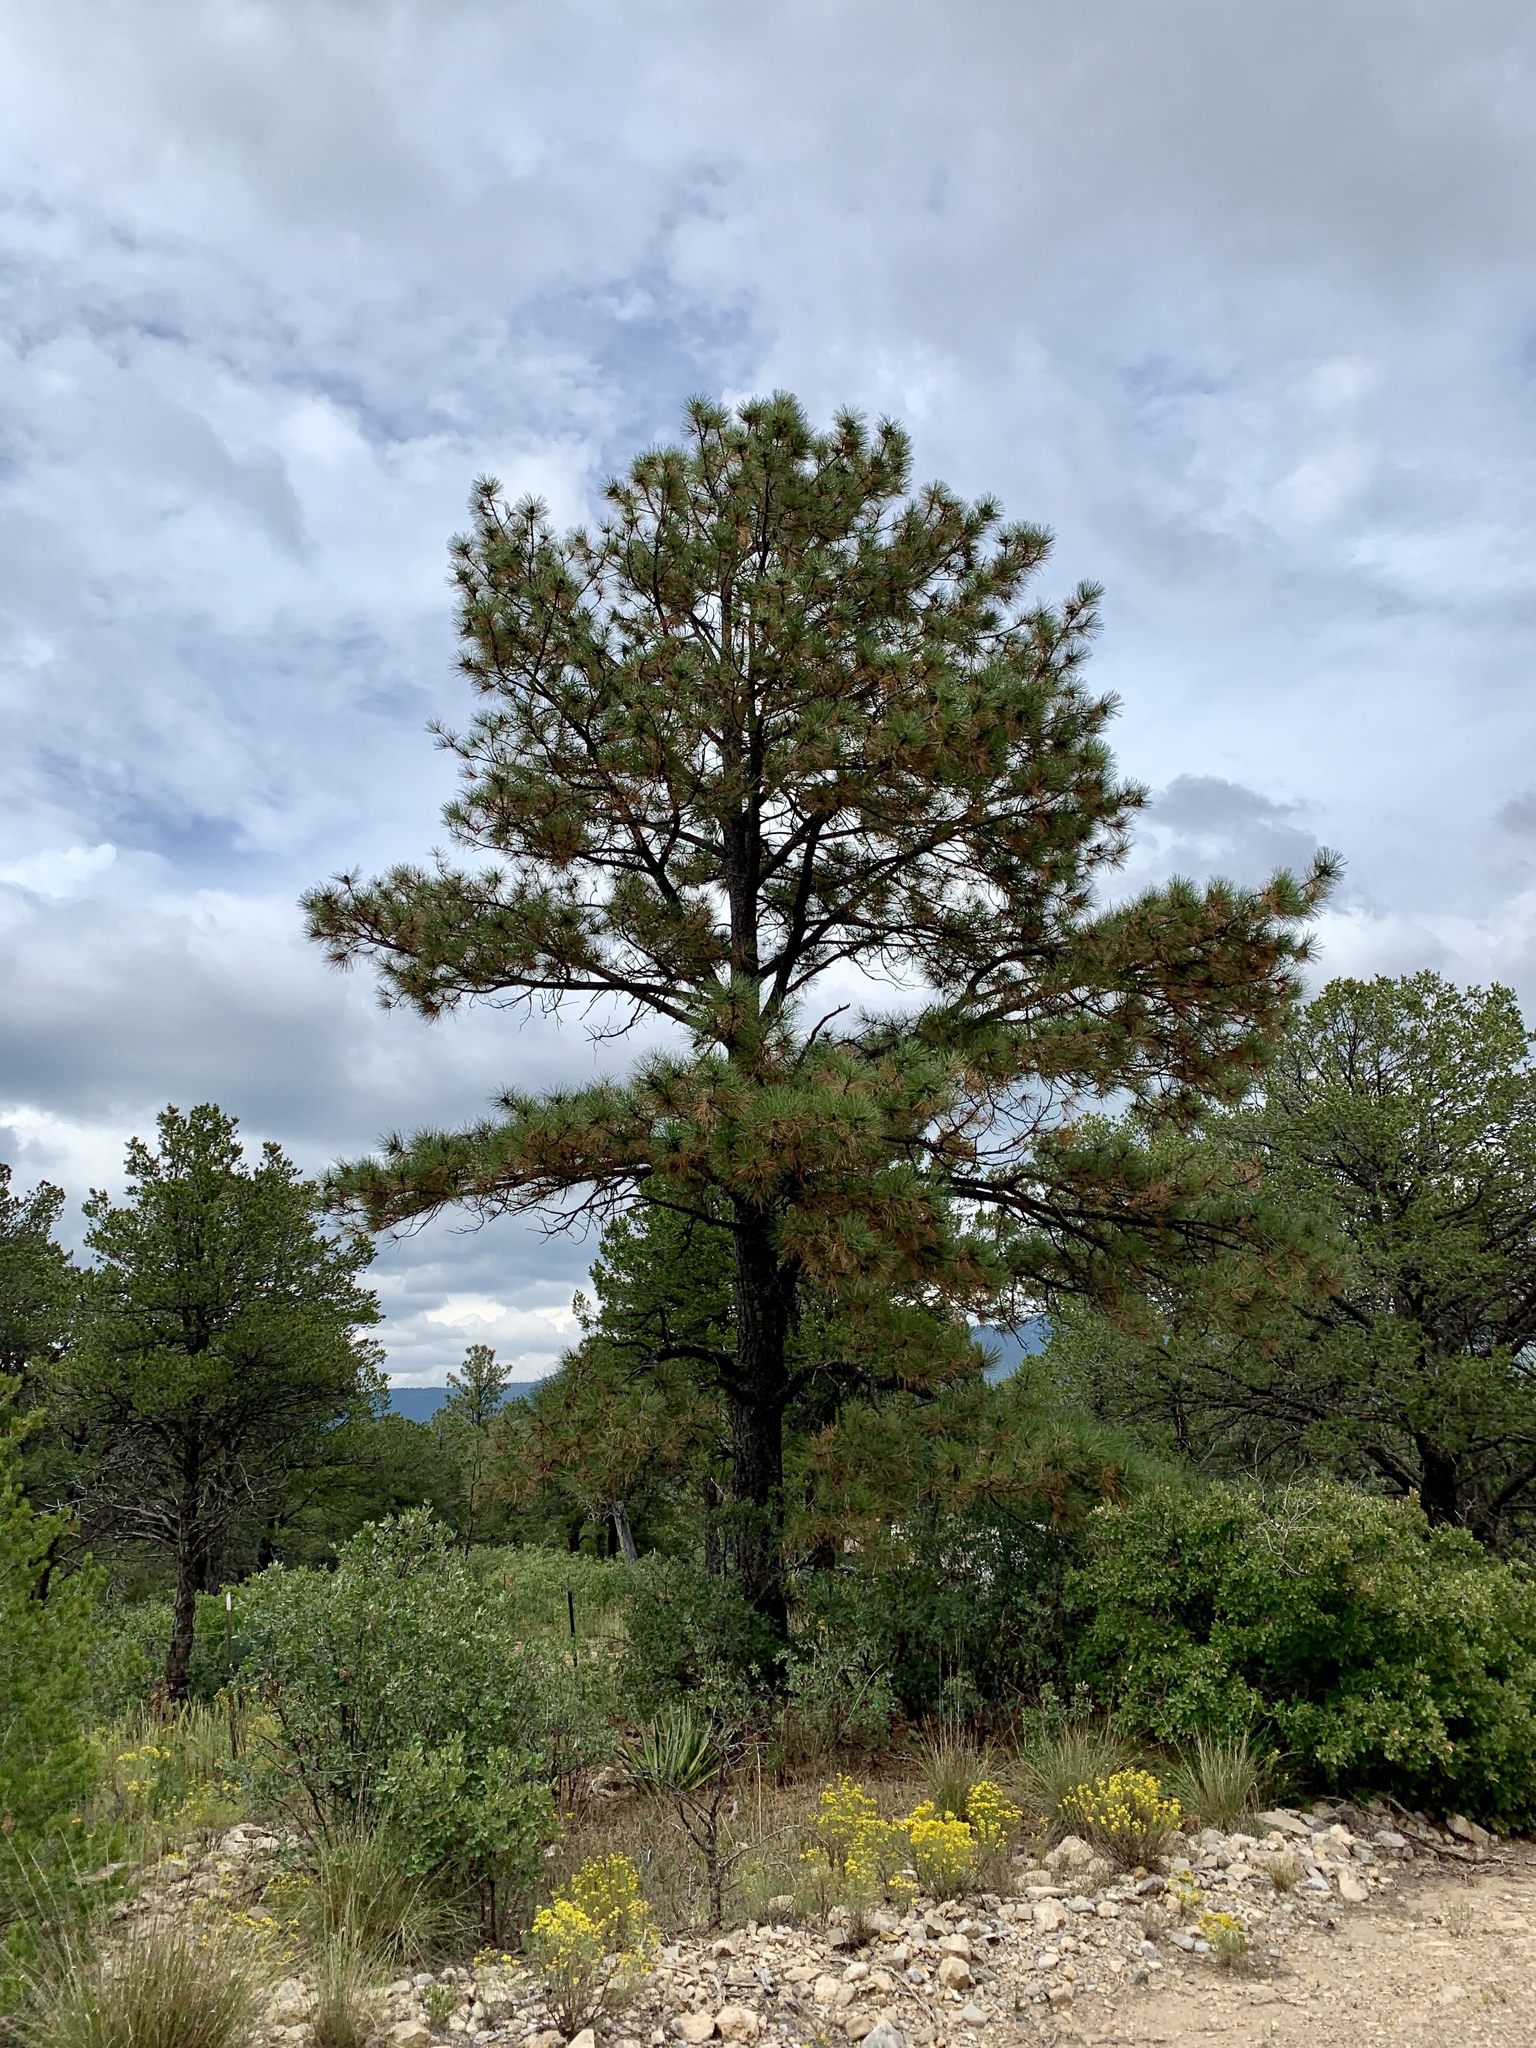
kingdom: Plantae
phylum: Tracheophyta
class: Pinopsida
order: Pinales
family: Pinaceae
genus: Pinus
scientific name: Pinus ponderosa
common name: Western yellow-pine
